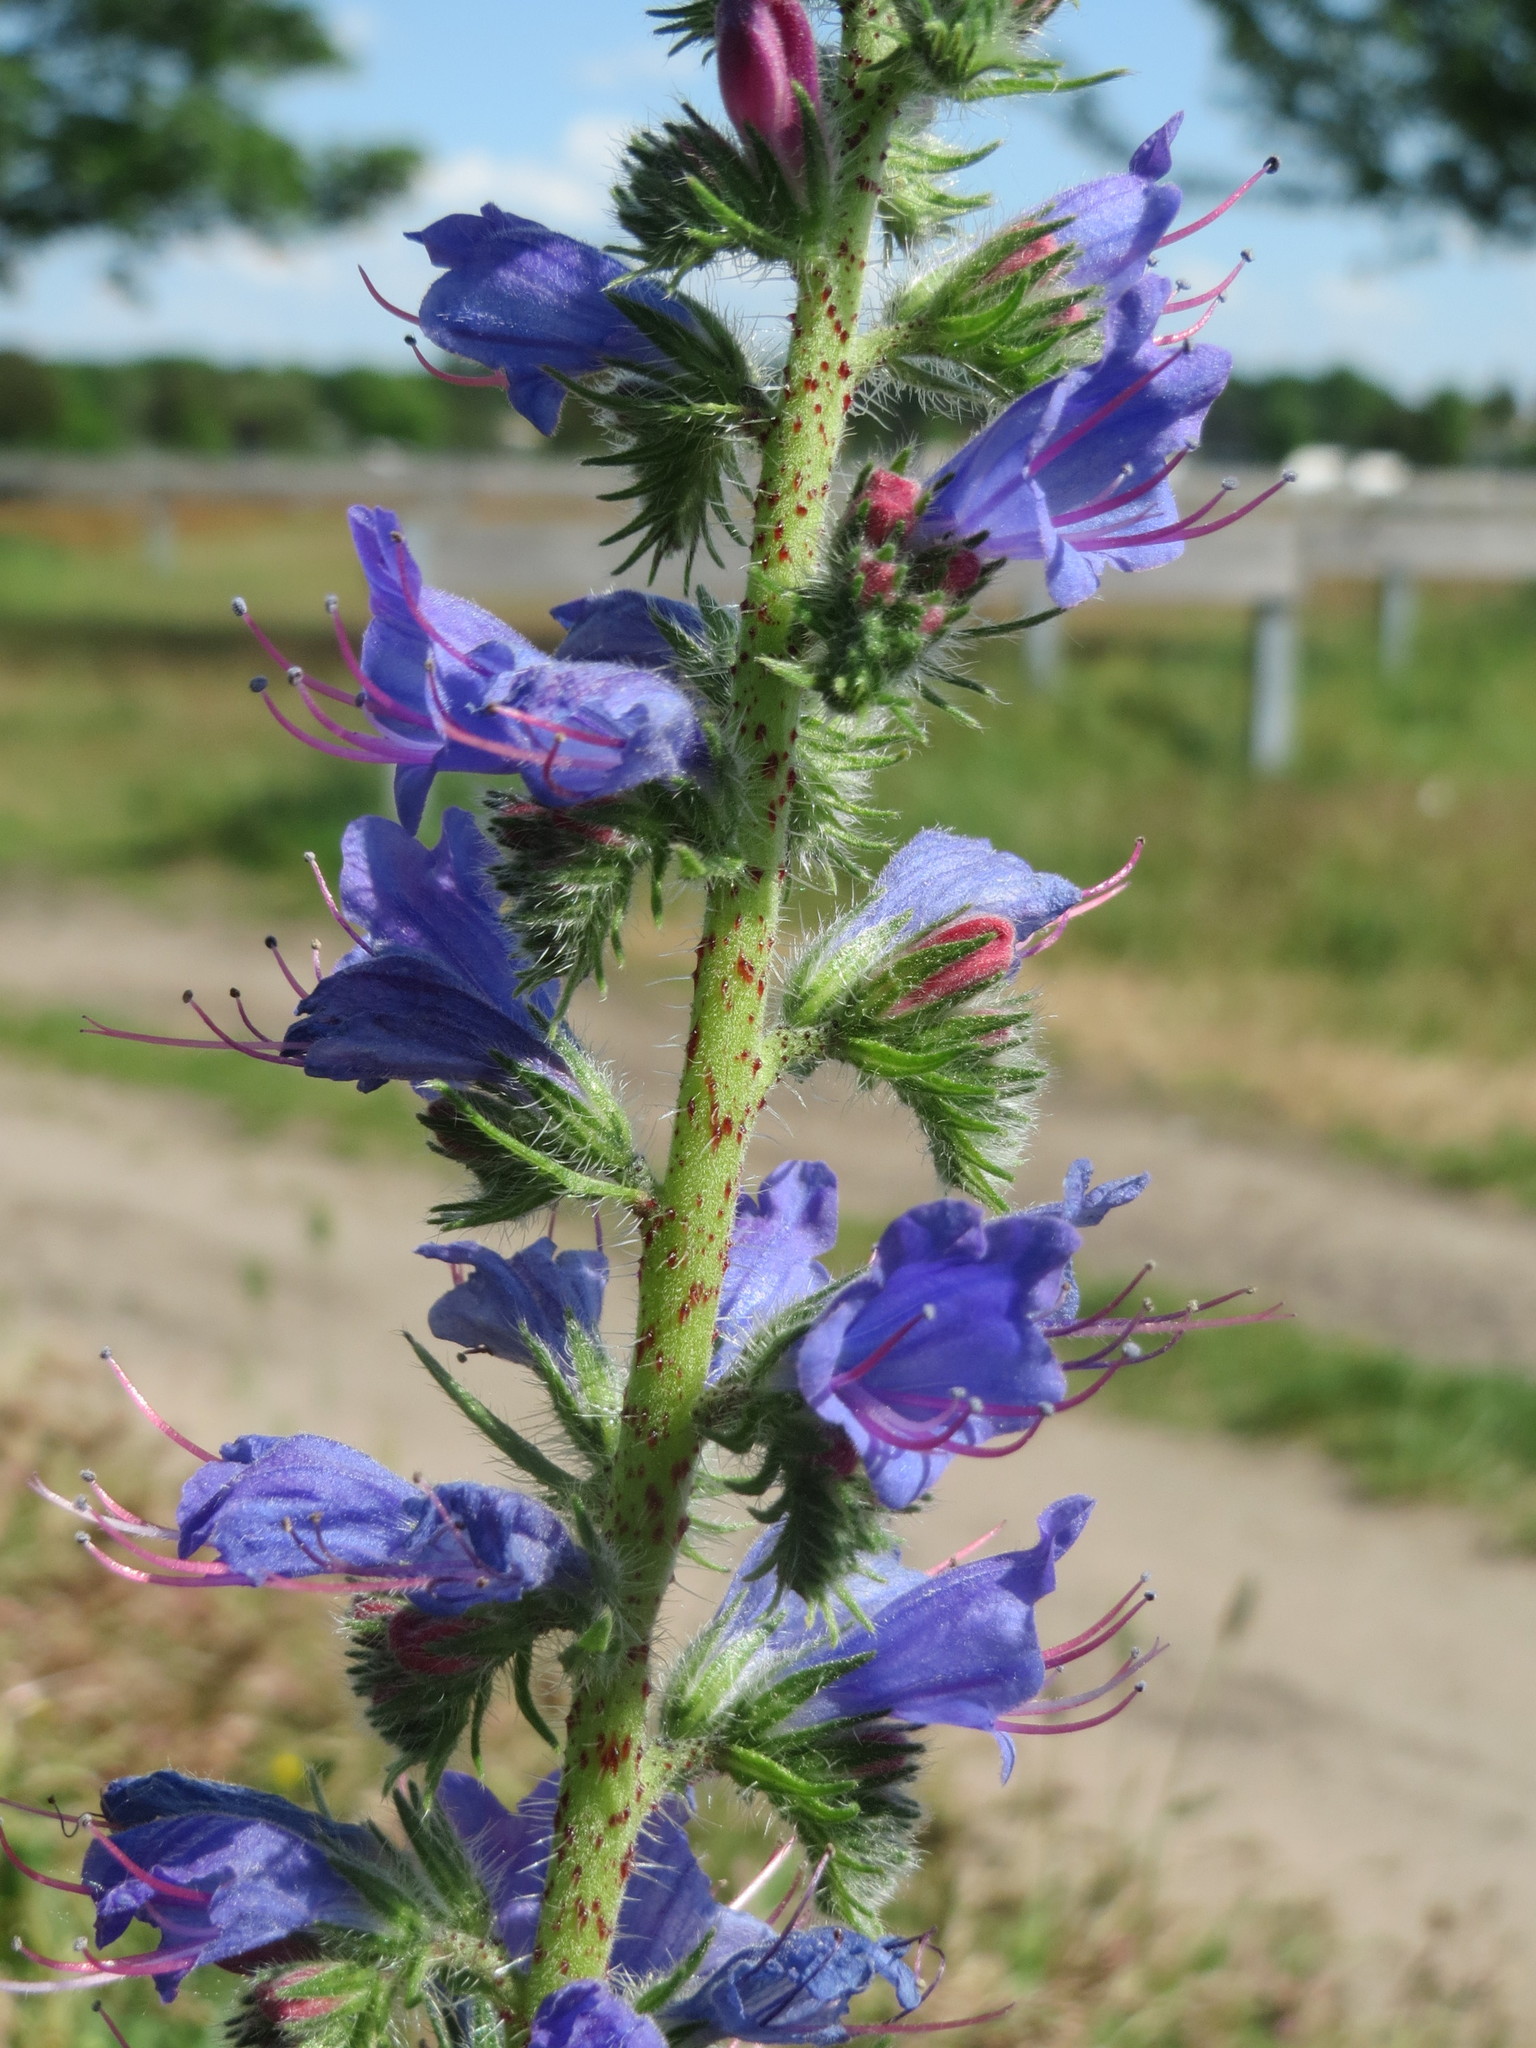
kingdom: Plantae
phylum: Tracheophyta
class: Magnoliopsida
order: Boraginales
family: Boraginaceae
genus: Echium
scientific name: Echium vulgare
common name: Common viper's bugloss
